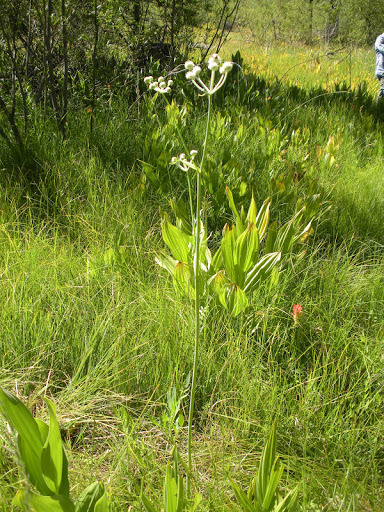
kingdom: Plantae
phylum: Tracheophyta
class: Magnoliopsida
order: Apiales
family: Apiaceae
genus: Angelica
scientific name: Angelica capitellata
